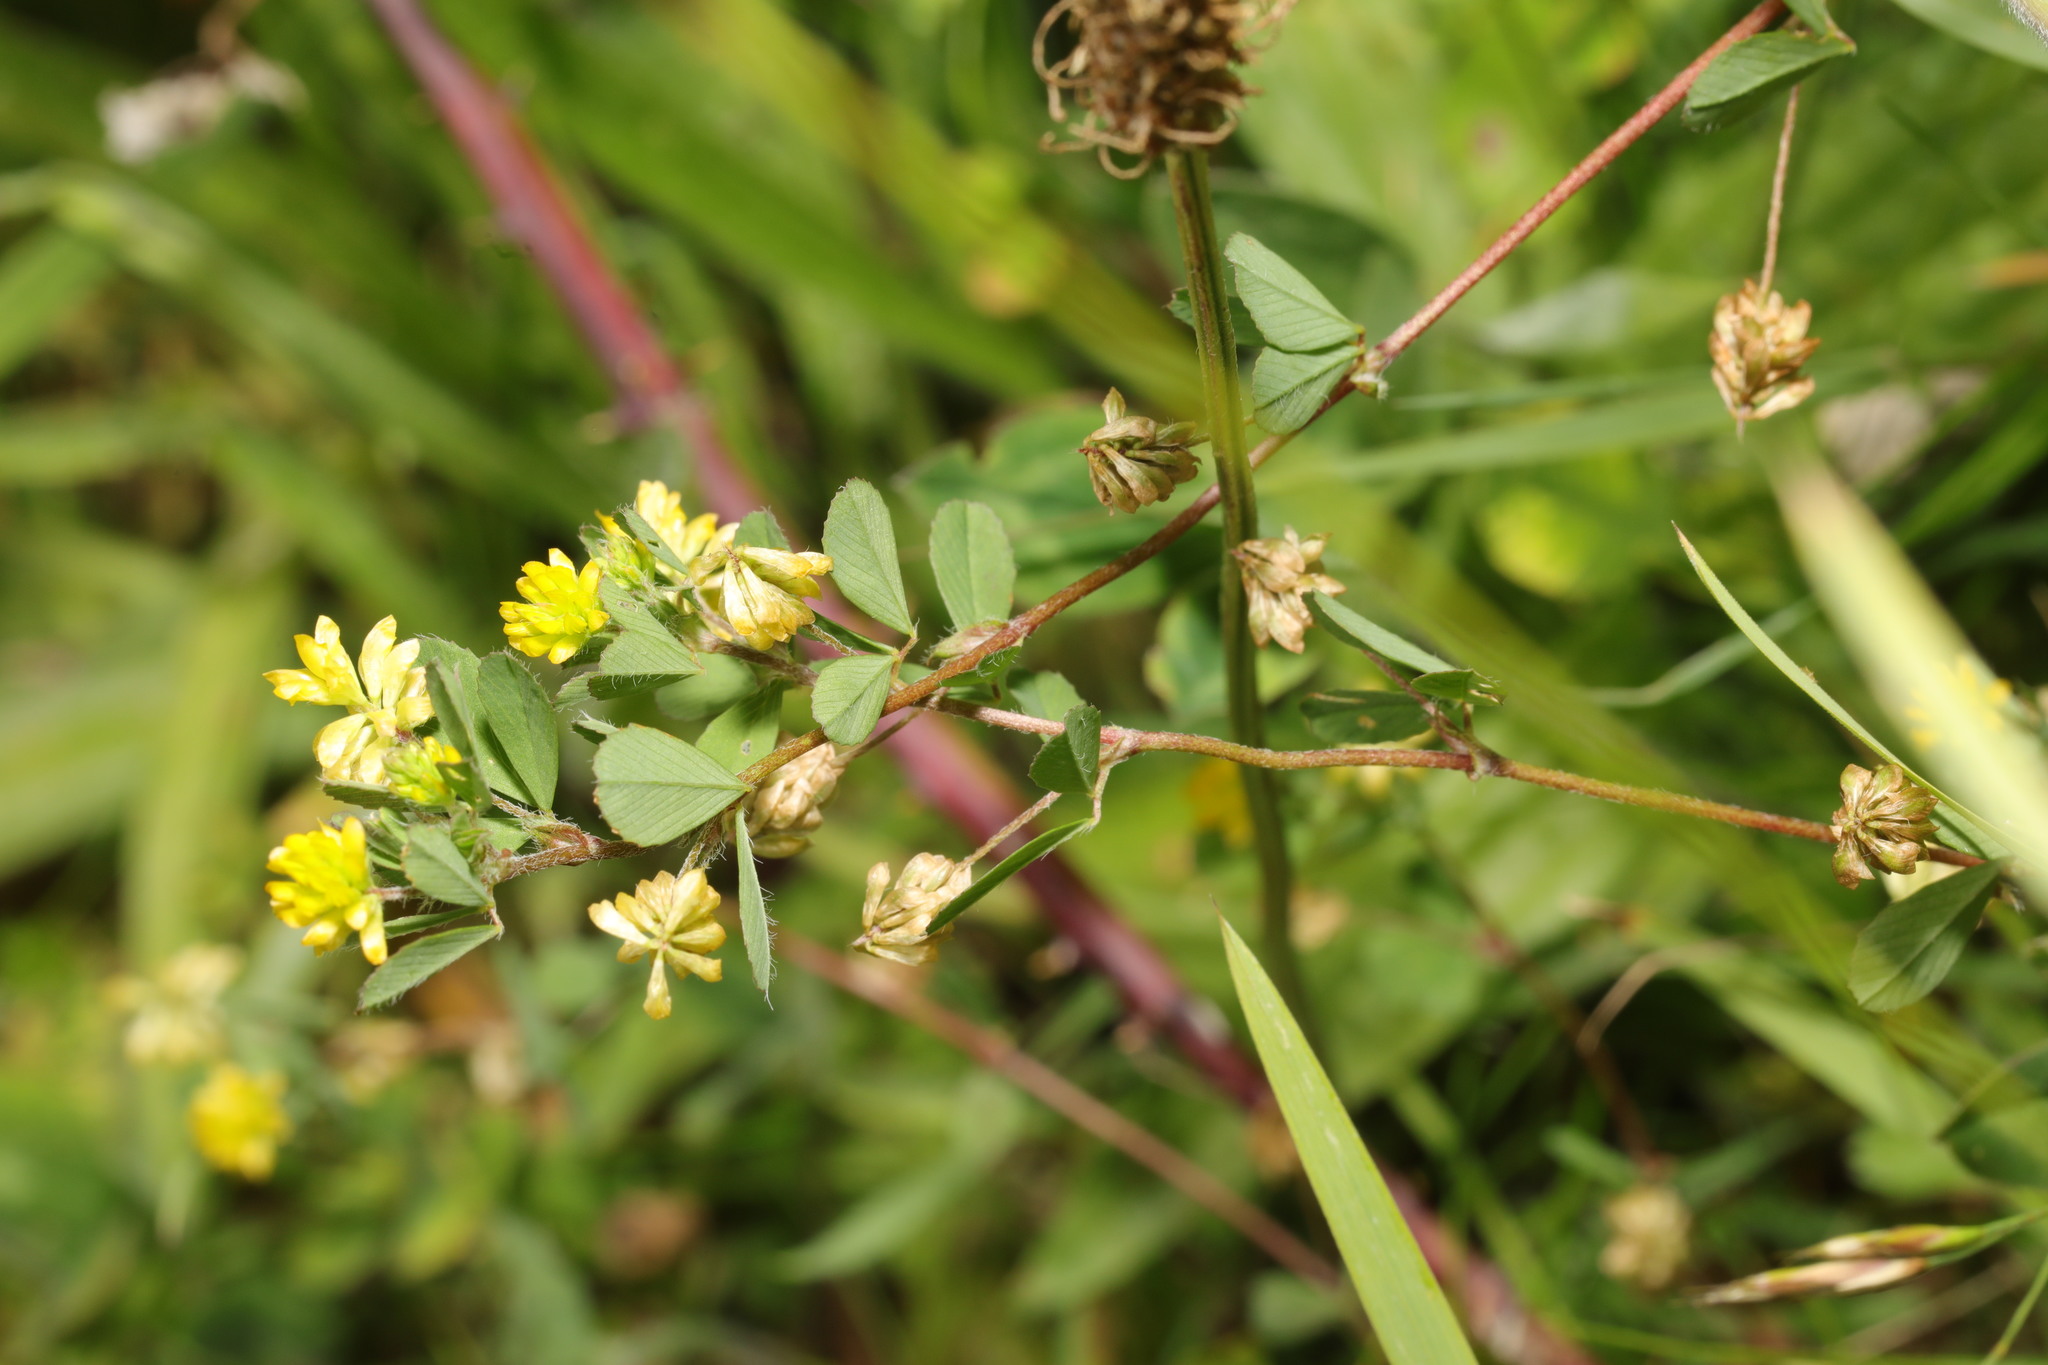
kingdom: Plantae
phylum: Tracheophyta
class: Magnoliopsida
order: Fabales
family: Fabaceae
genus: Trifolium
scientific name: Trifolium dubium
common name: Suckling clover
